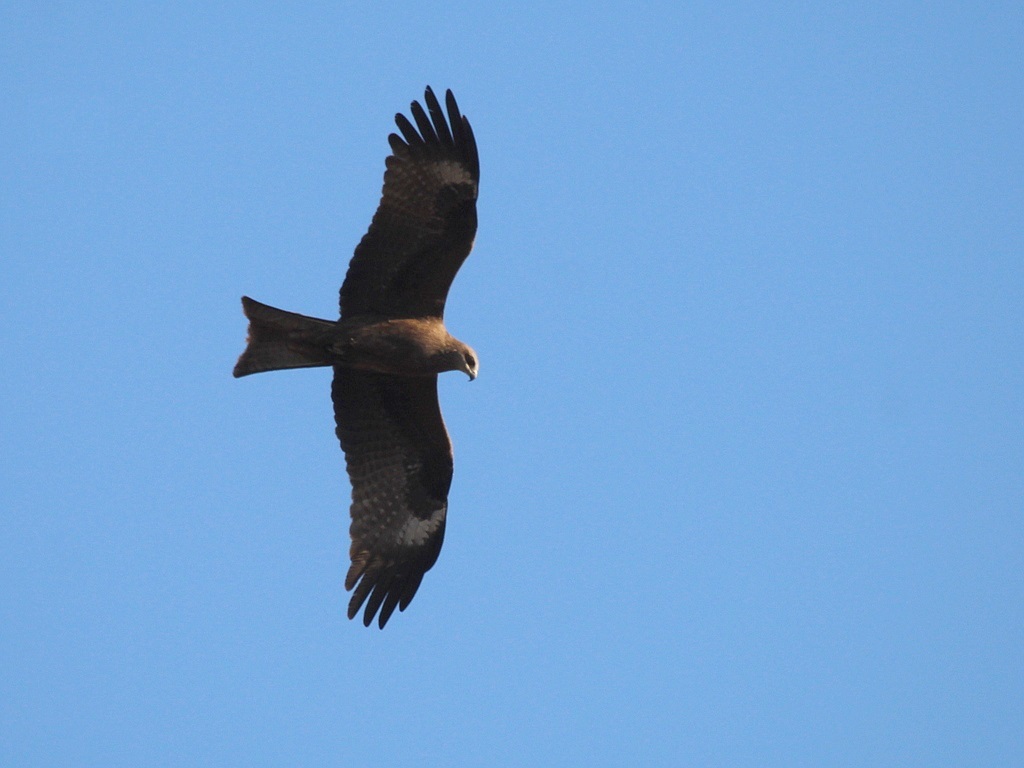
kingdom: Animalia
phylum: Chordata
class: Aves
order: Accipitriformes
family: Accipitridae
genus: Milvus
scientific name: Milvus migrans
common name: Black kite
